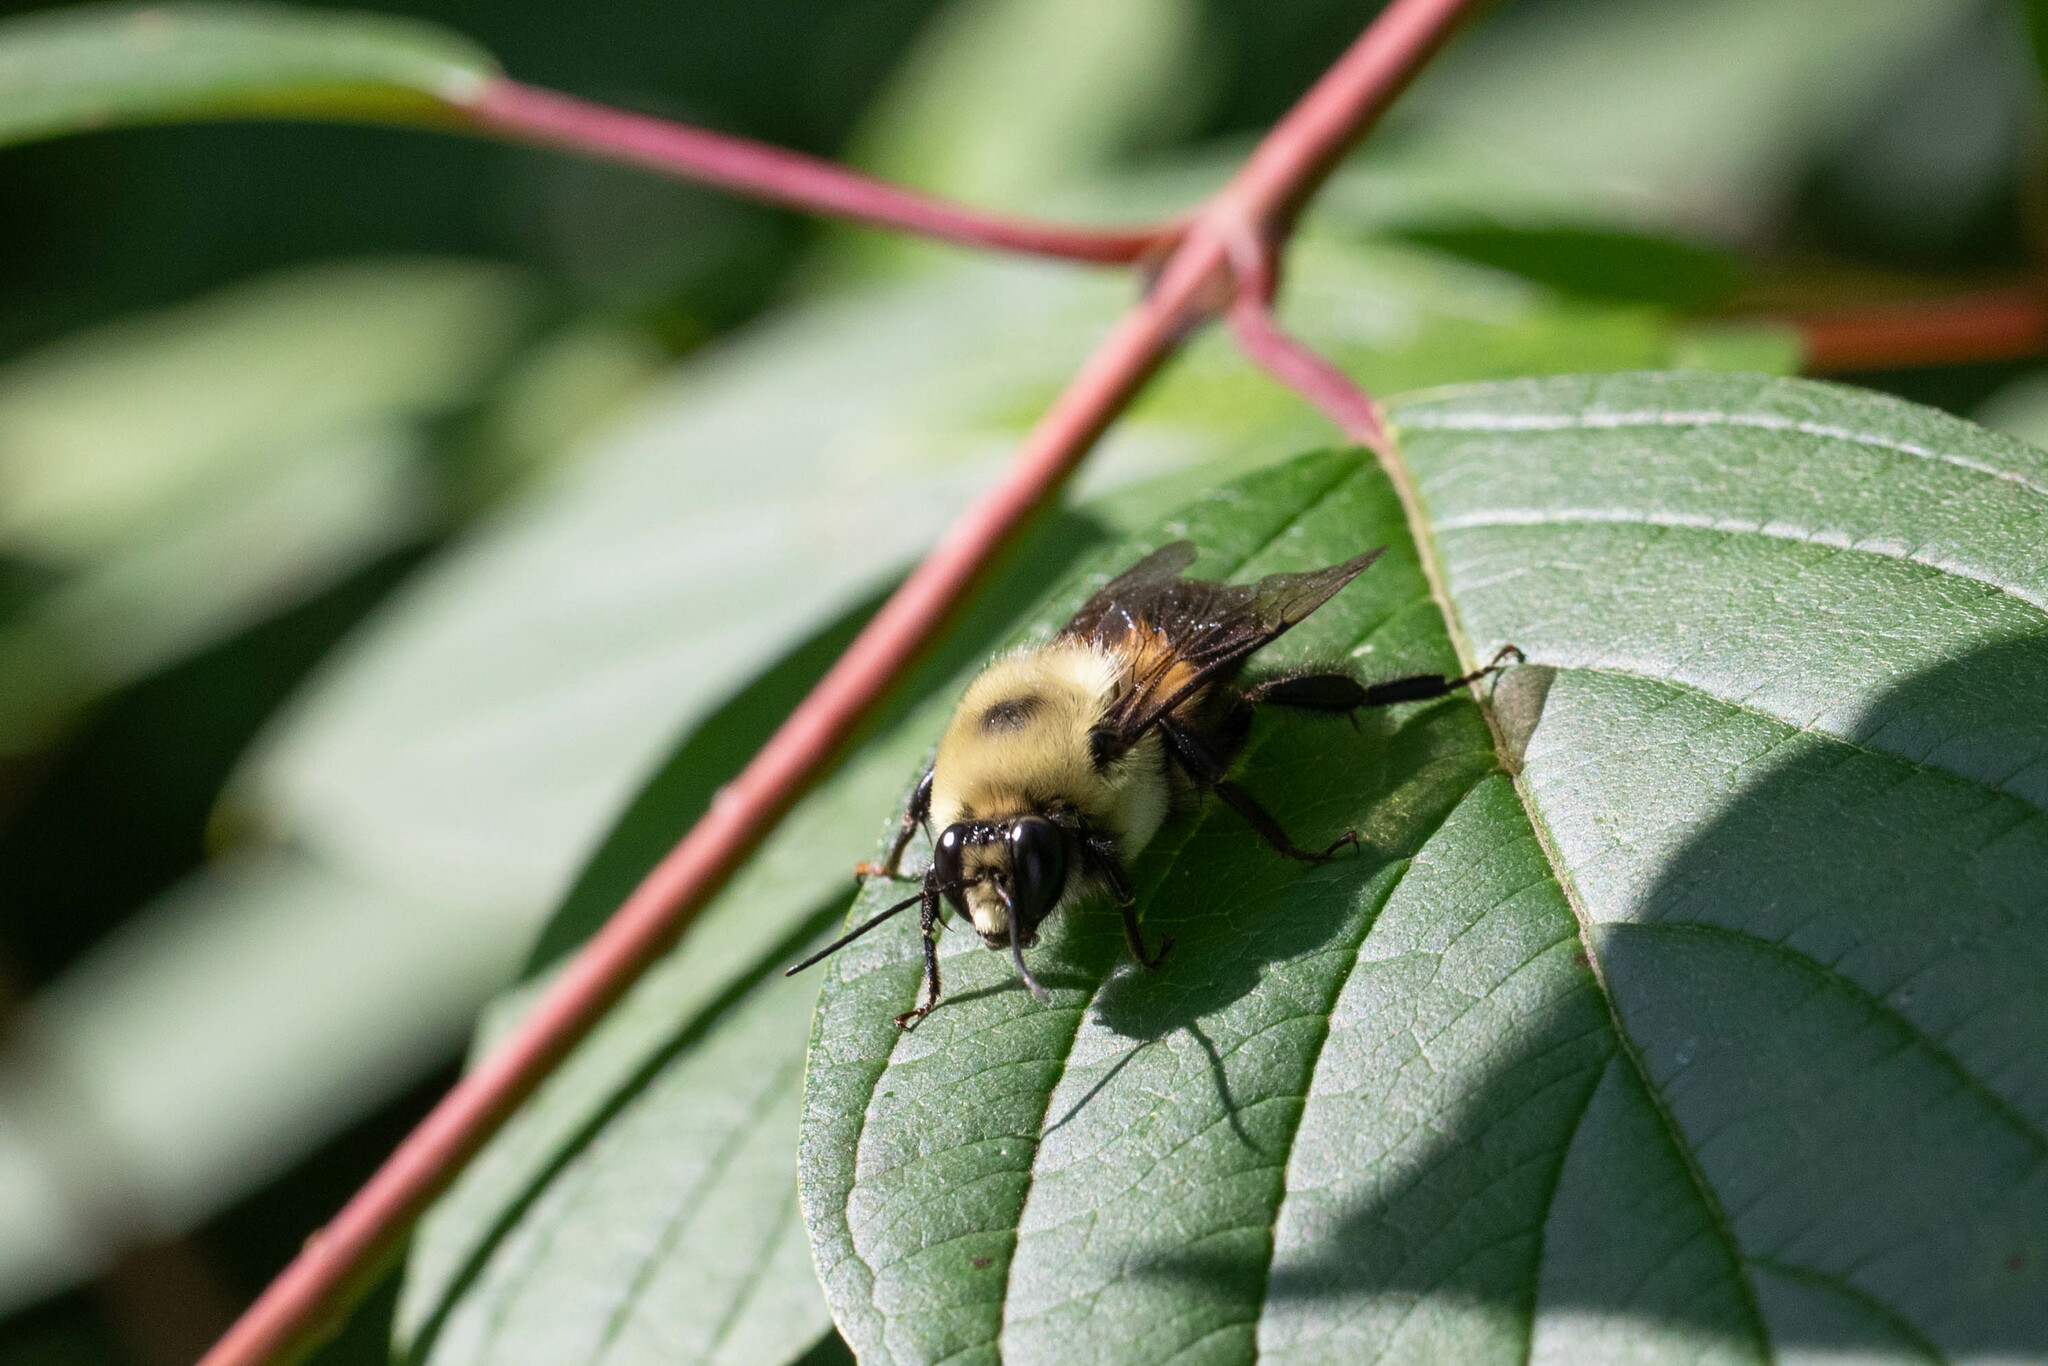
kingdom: Animalia
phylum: Arthropoda
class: Insecta
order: Hymenoptera
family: Apidae
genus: Bombus
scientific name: Bombus griseocollis
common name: Brown-belted bumble bee
